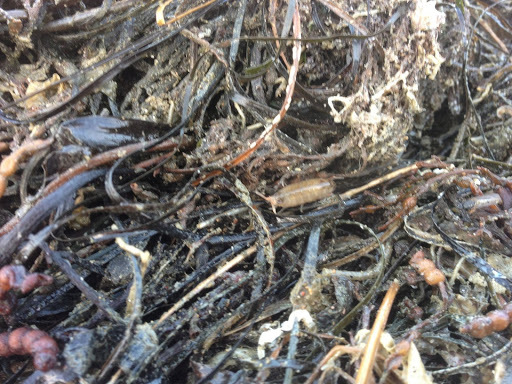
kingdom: Animalia
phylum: Arthropoda
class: Malacostraca
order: Amphipoda
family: Talitridae
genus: Megalorchestia
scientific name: Megalorchestia californiana
